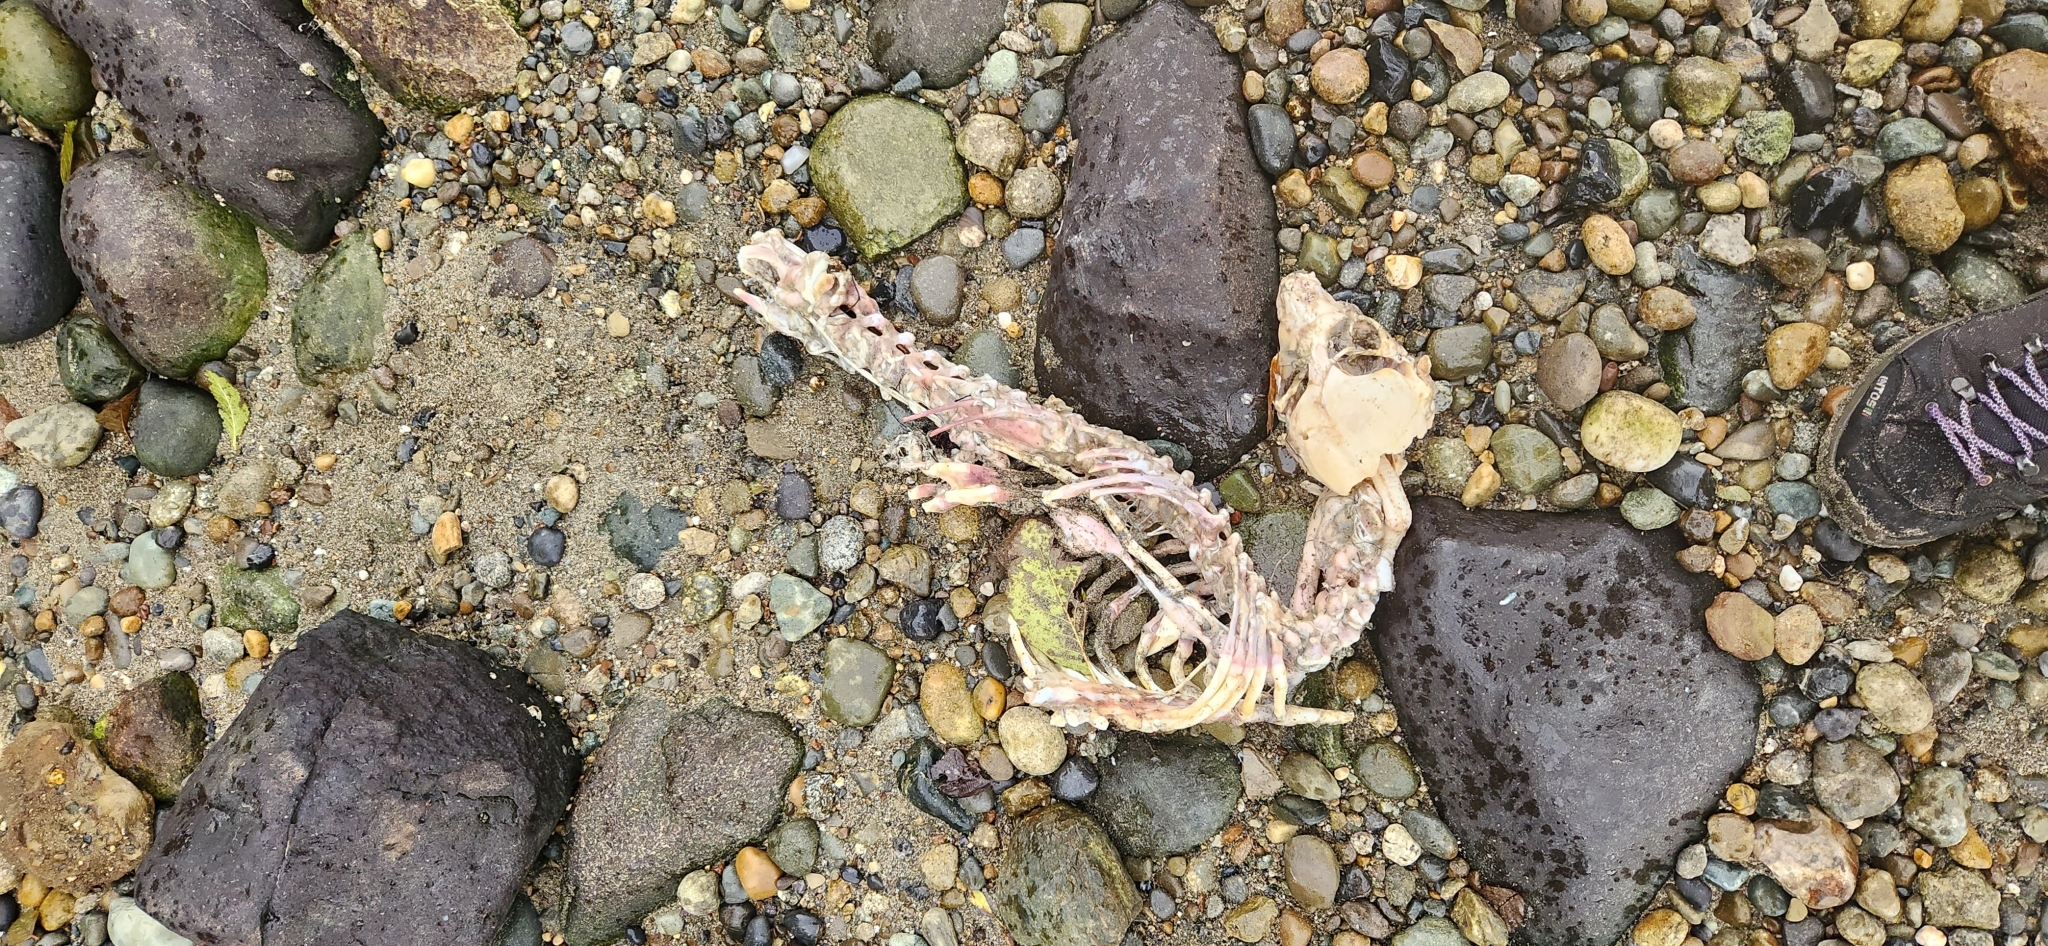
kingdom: Animalia
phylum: Chordata
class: Mammalia
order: Carnivora
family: Phocidae
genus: Phoca
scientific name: Phoca vitulina
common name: Harbor seal
